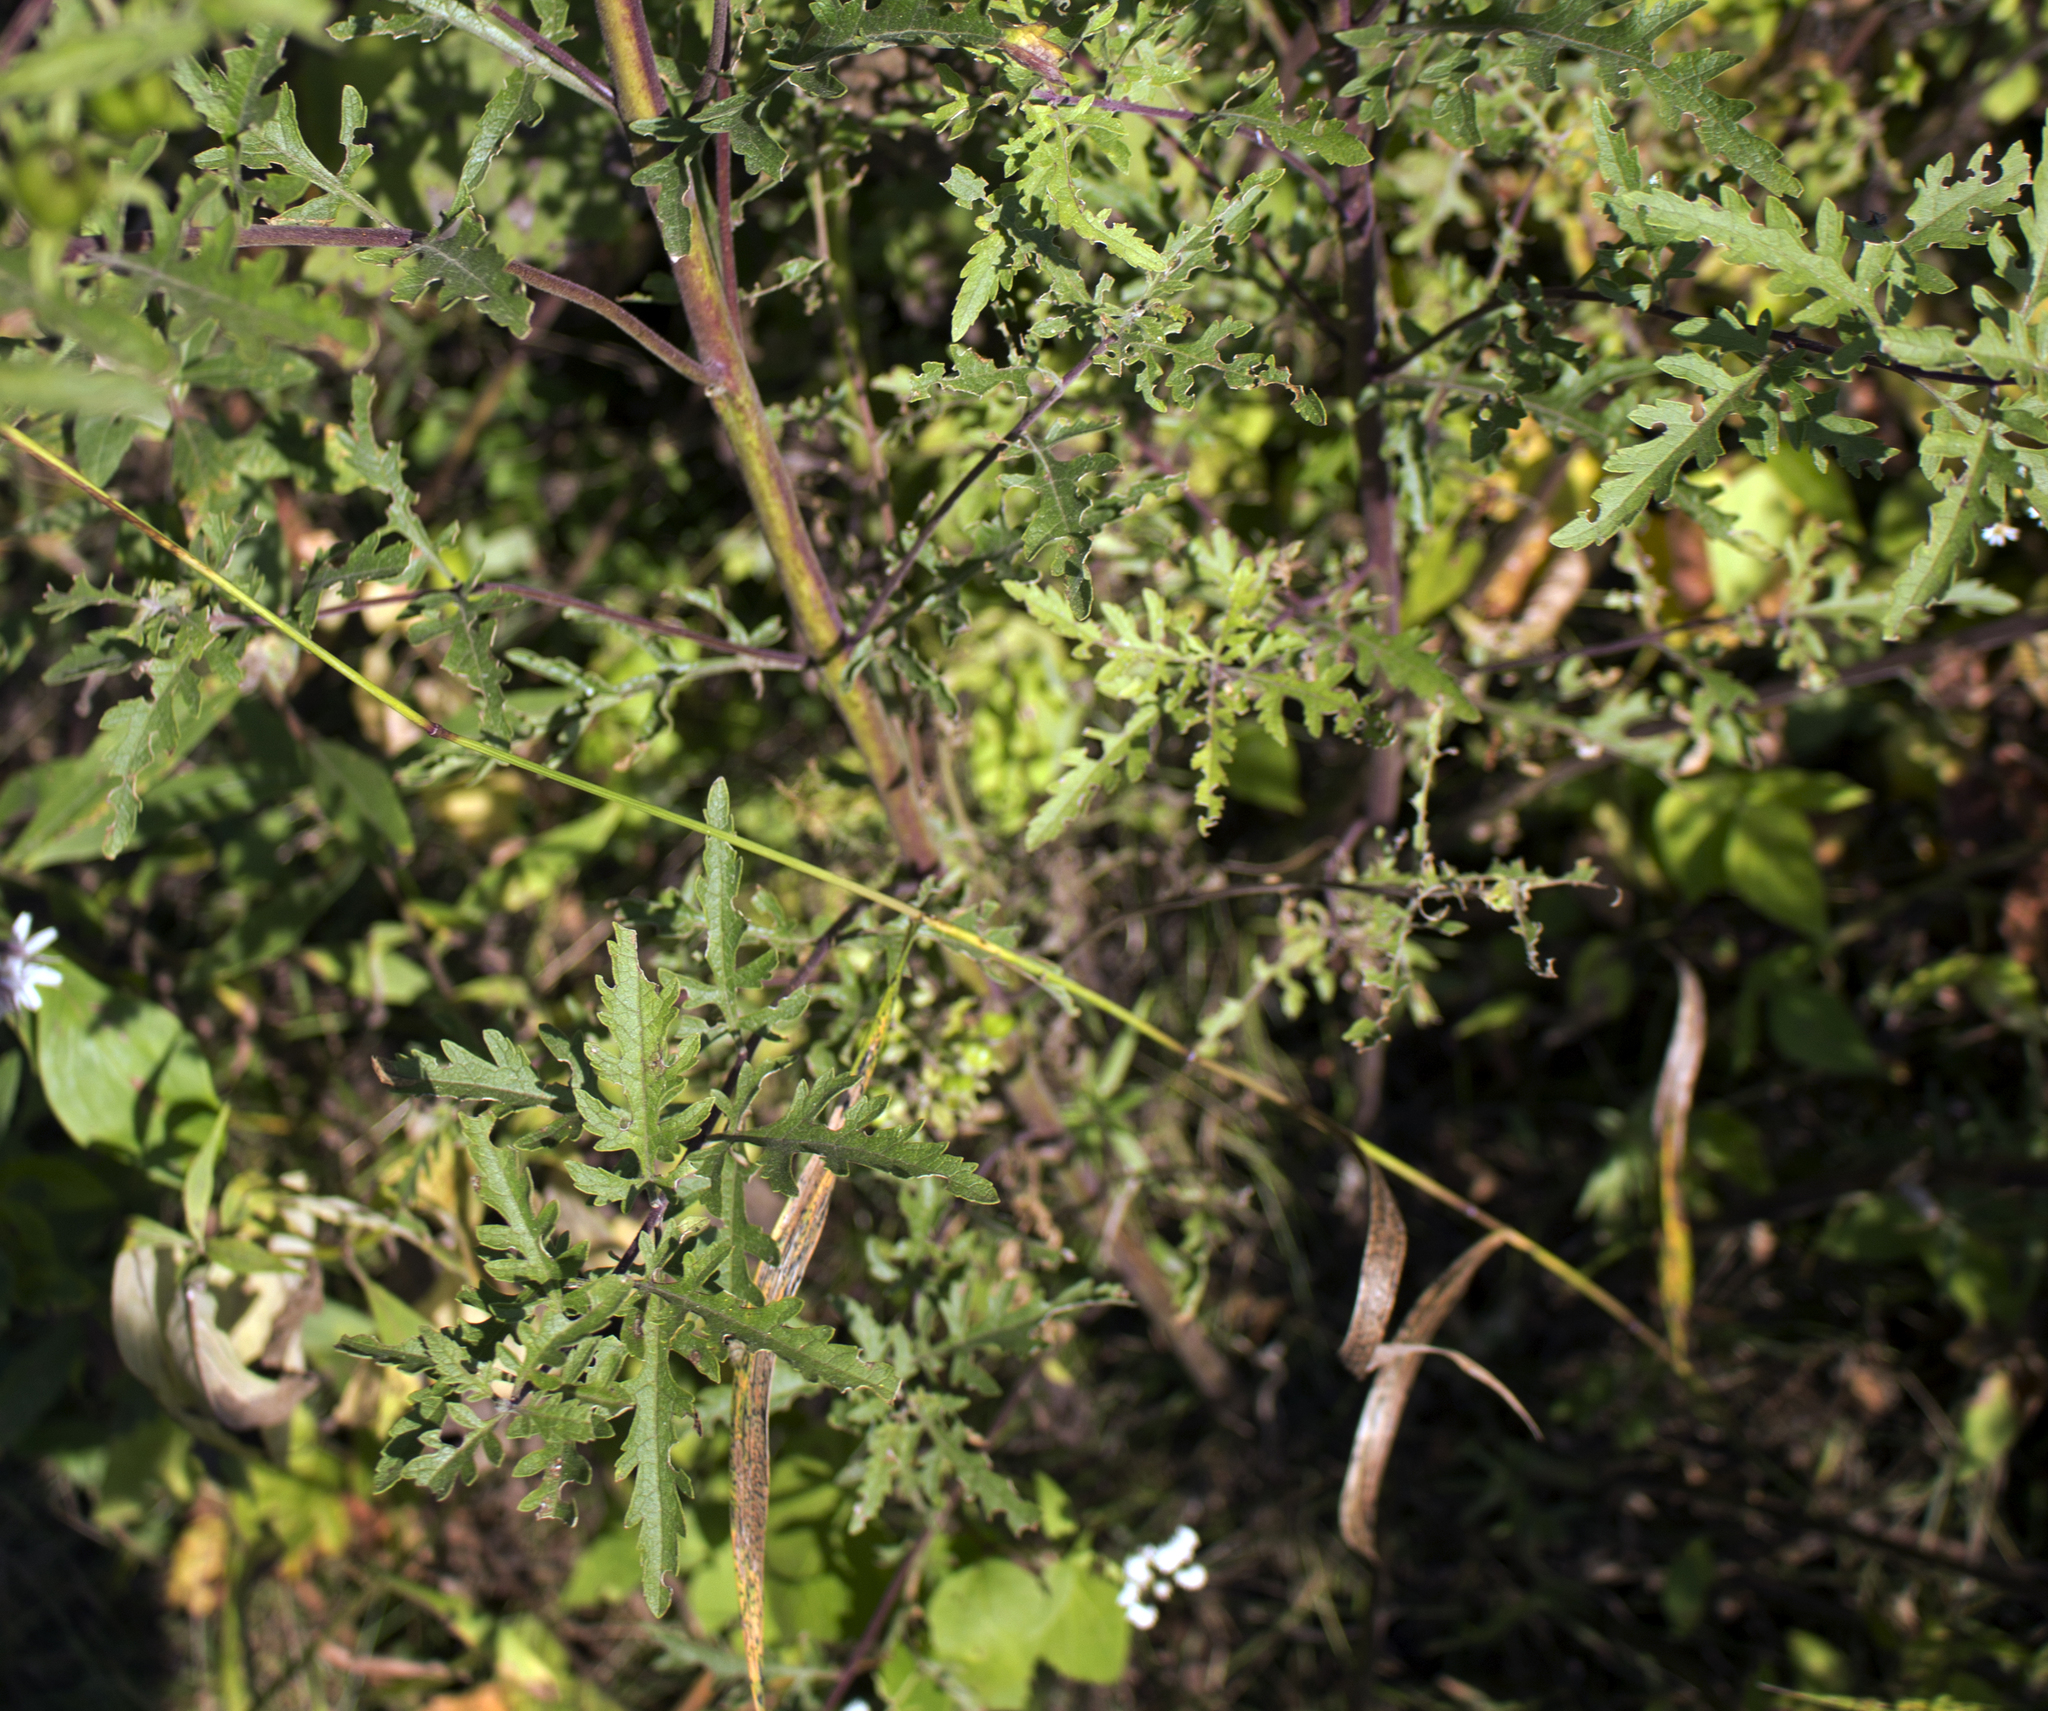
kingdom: Plantae
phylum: Tracheophyta
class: Magnoliopsida
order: Lamiales
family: Orobanchaceae
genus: Aureolaria
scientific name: Aureolaria grandiflora
